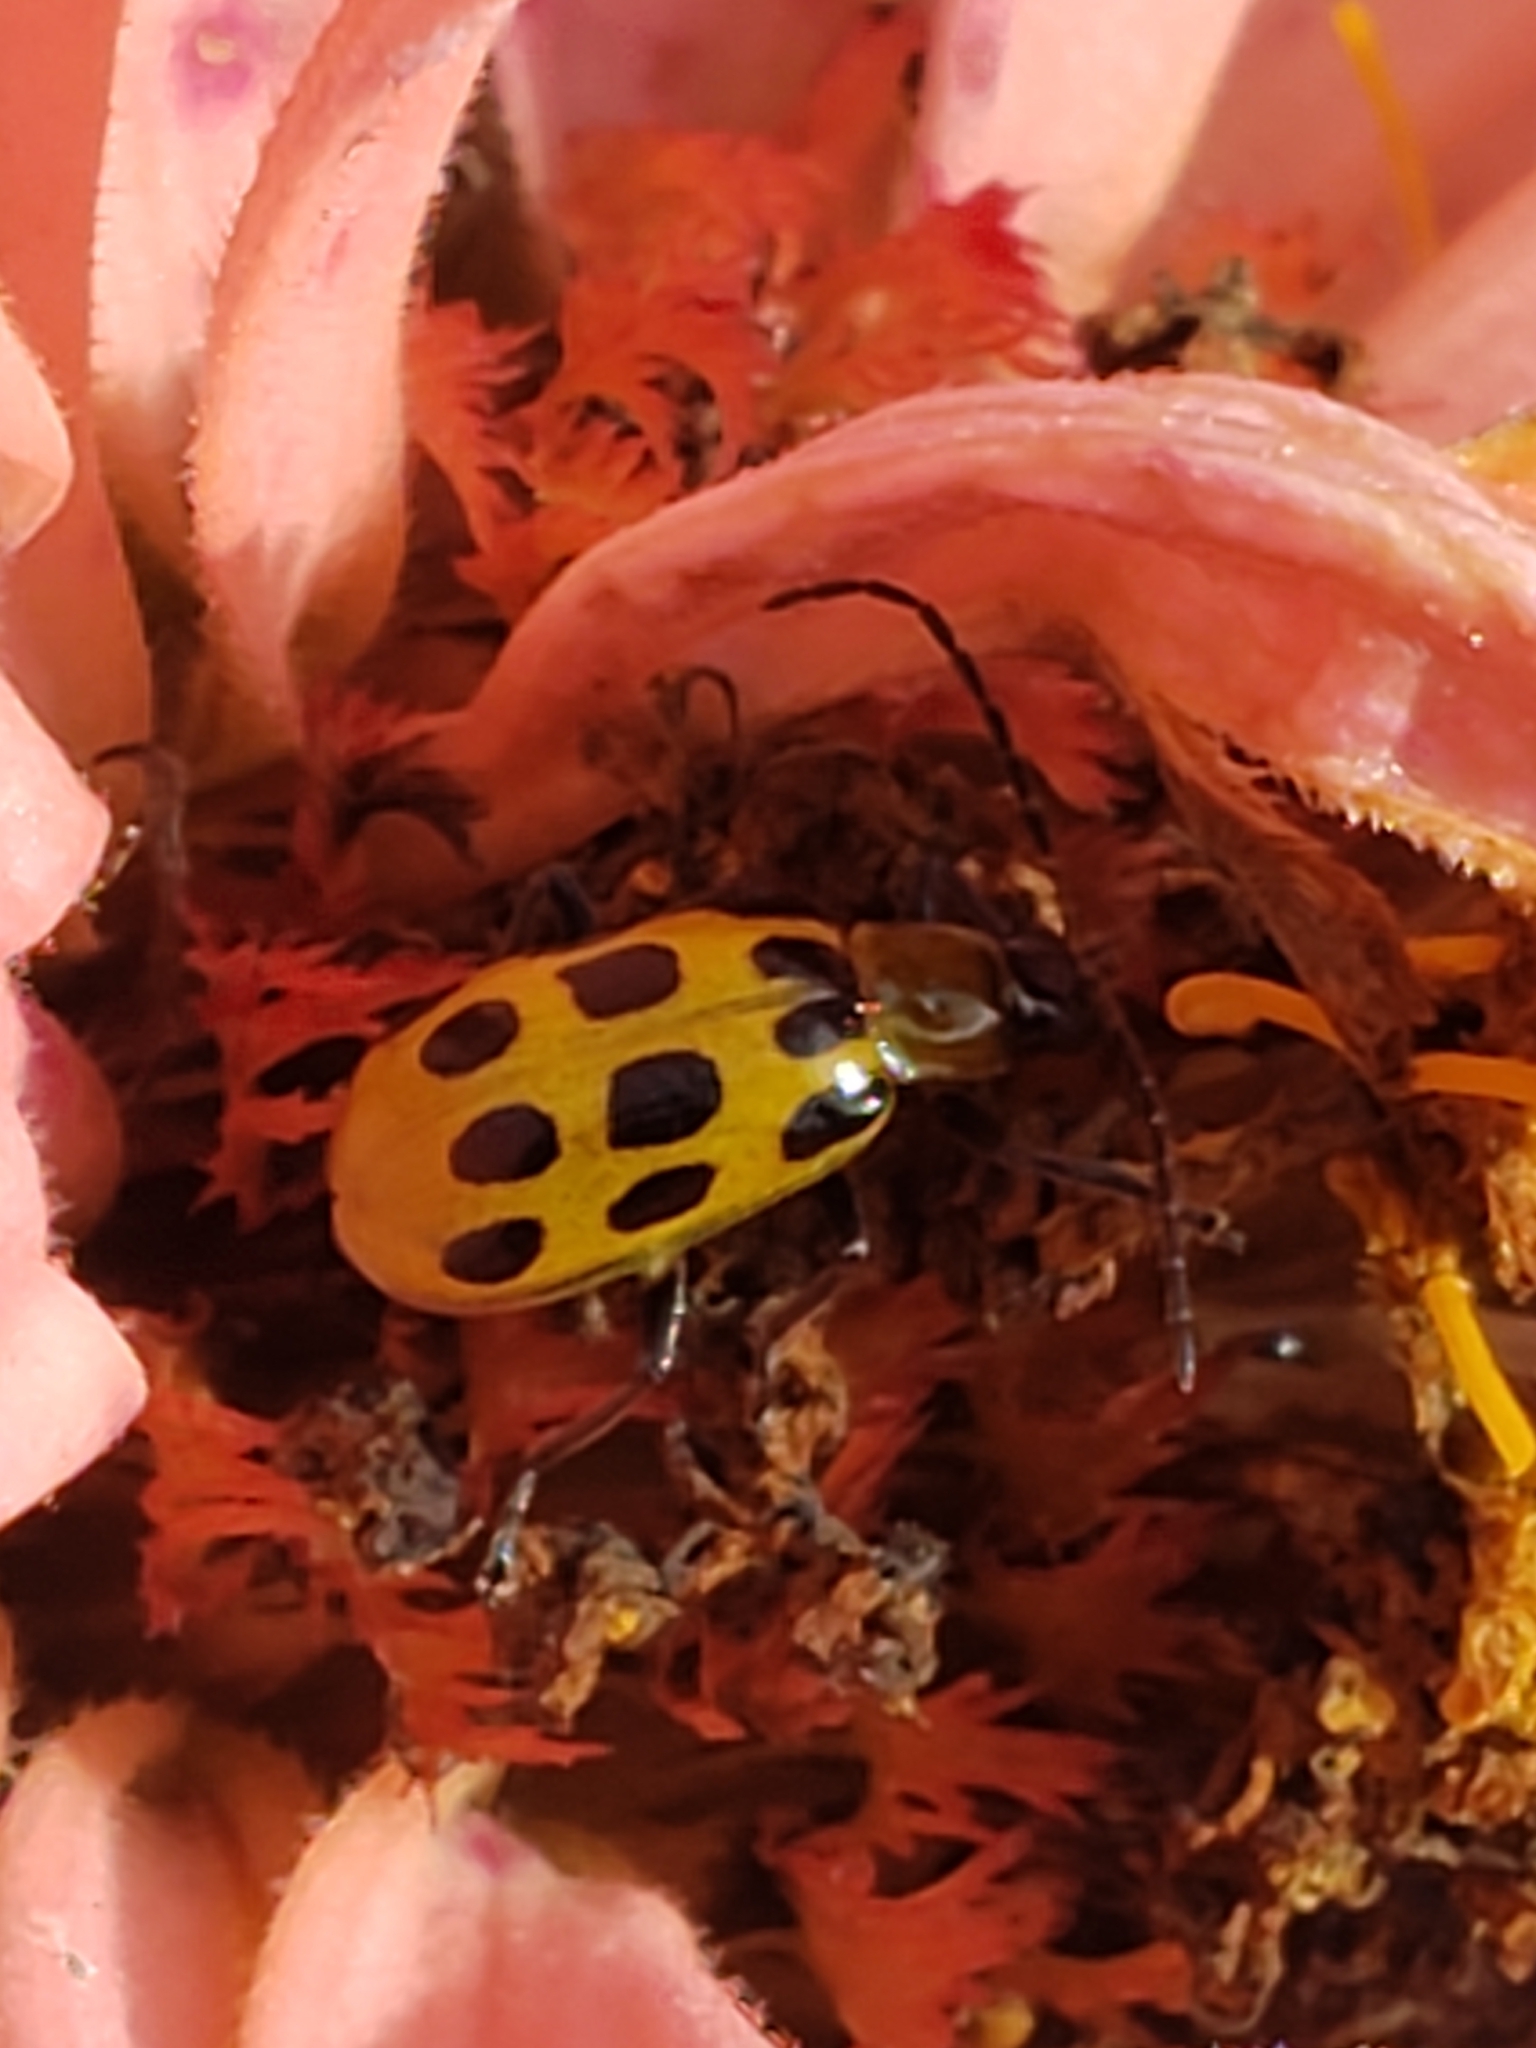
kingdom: Animalia
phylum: Arthropoda
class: Insecta
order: Coleoptera
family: Chrysomelidae
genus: Diabrotica
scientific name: Diabrotica undecimpunctata
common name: Spotted cucumber beetle
